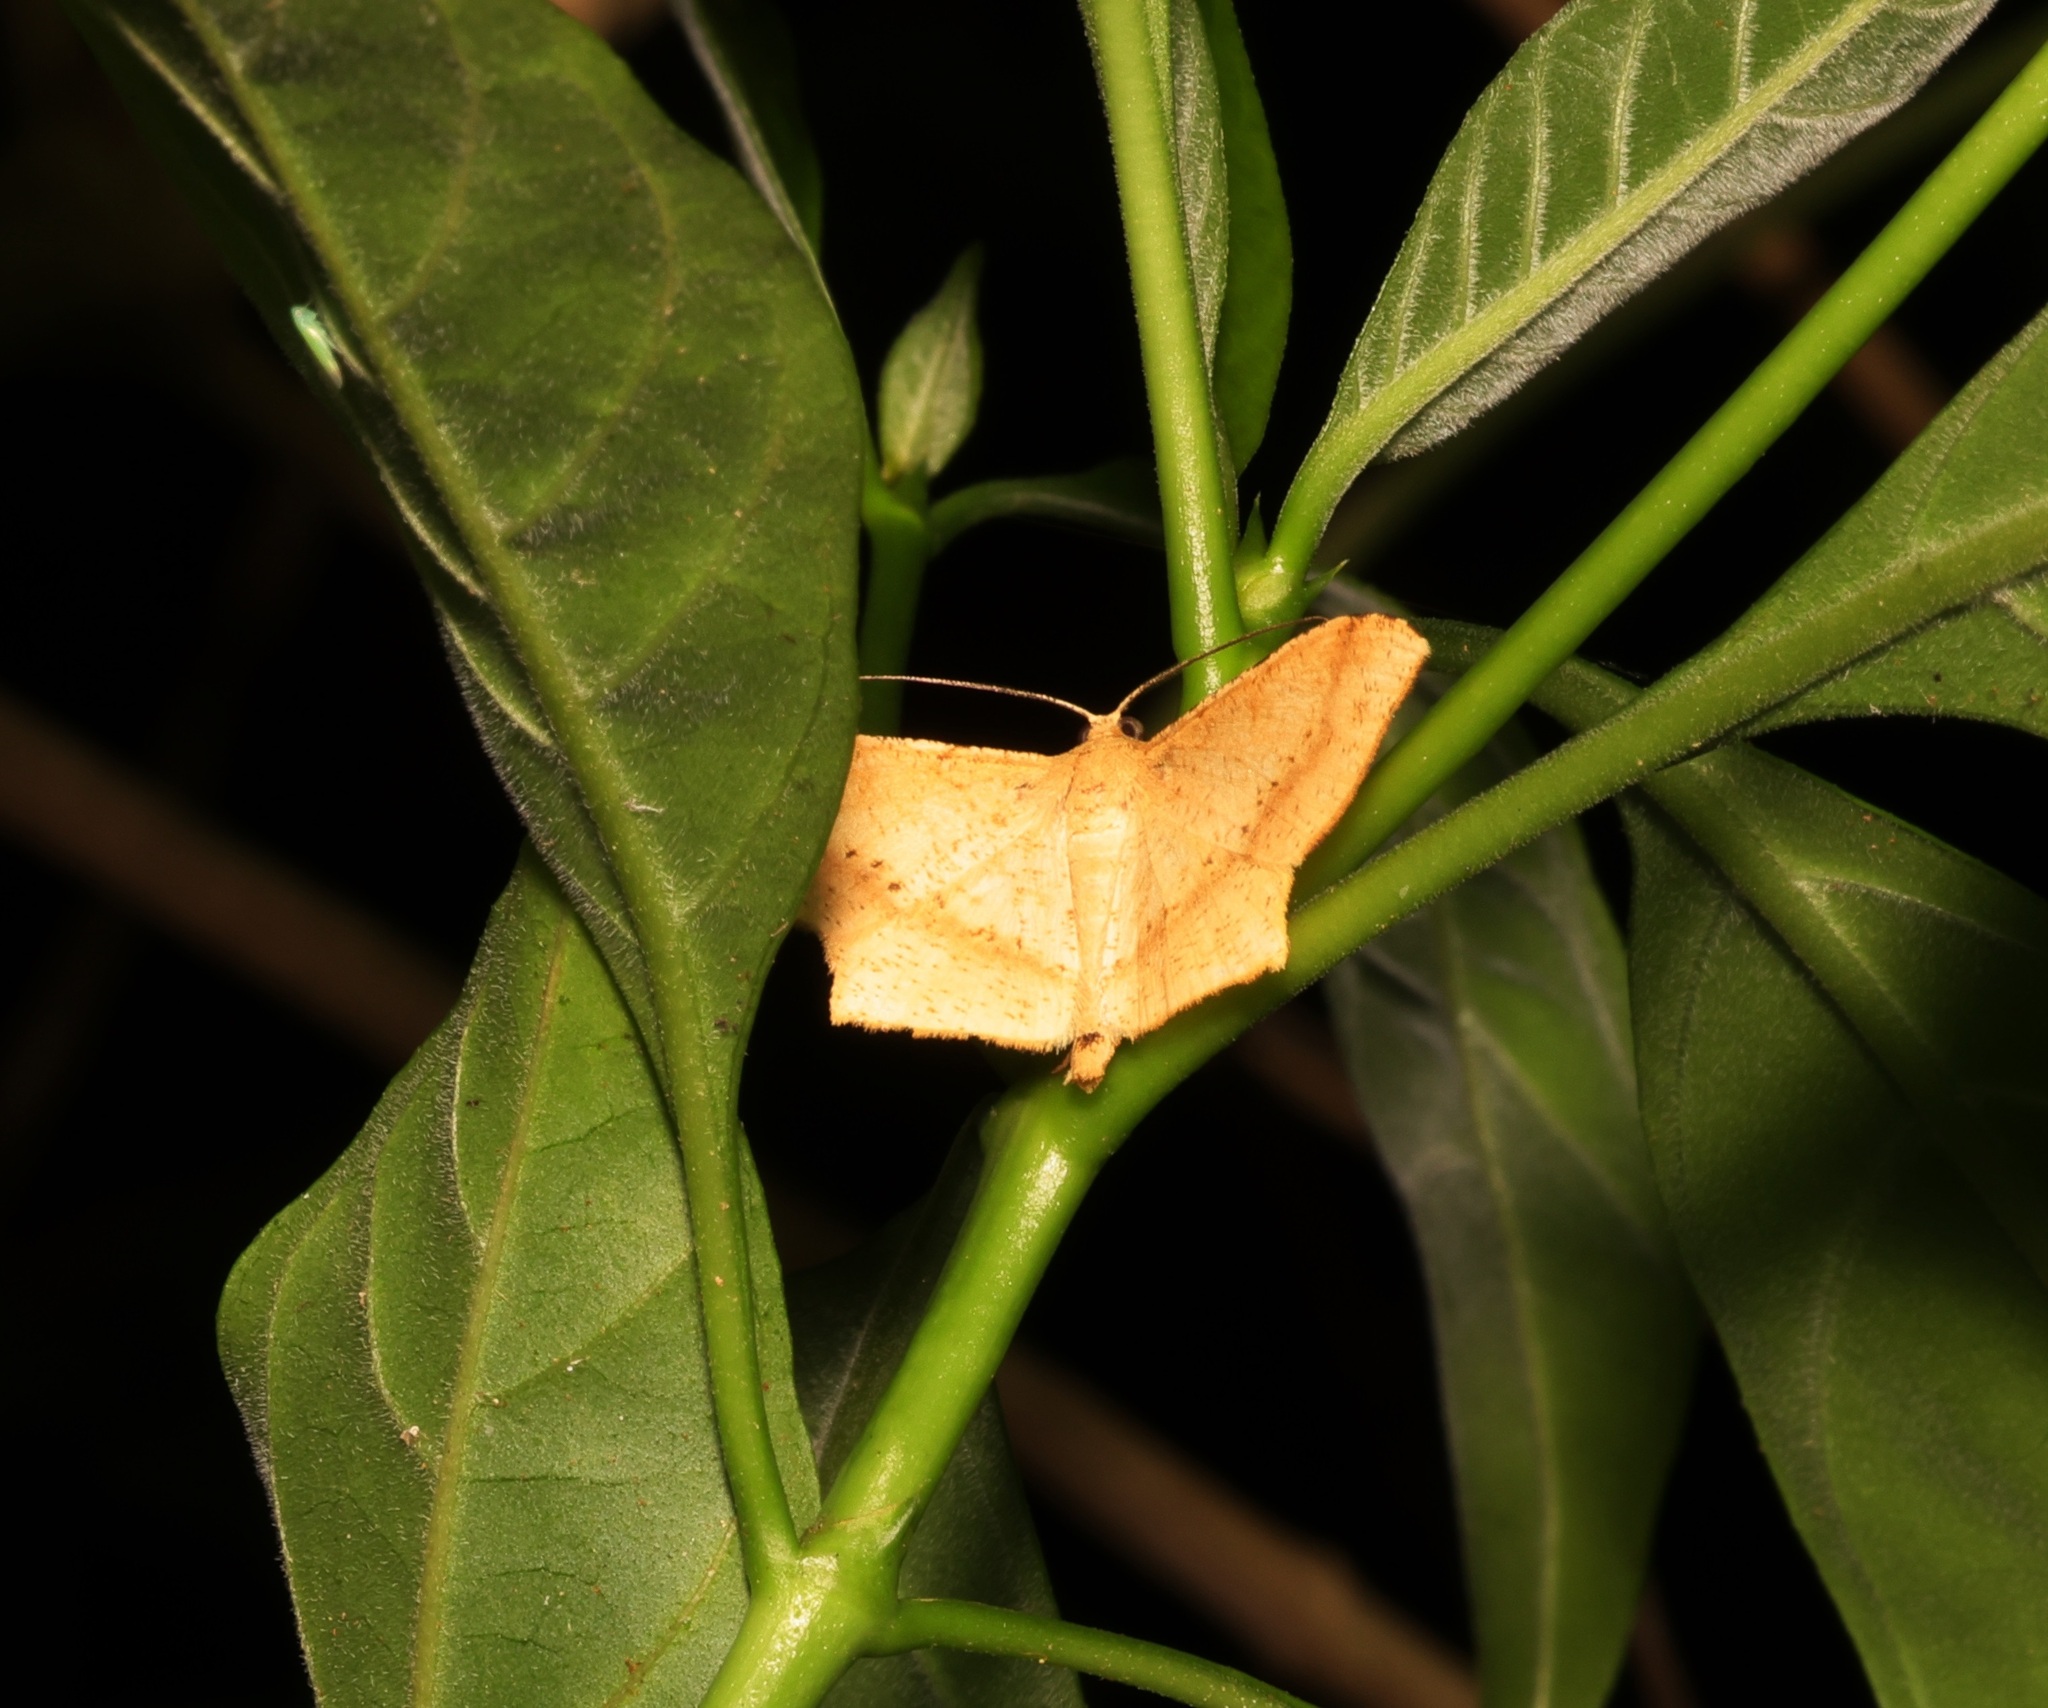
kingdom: Animalia
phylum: Arthropoda
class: Insecta
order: Lepidoptera
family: Geometridae
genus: Krananda
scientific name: Krananda falcata
